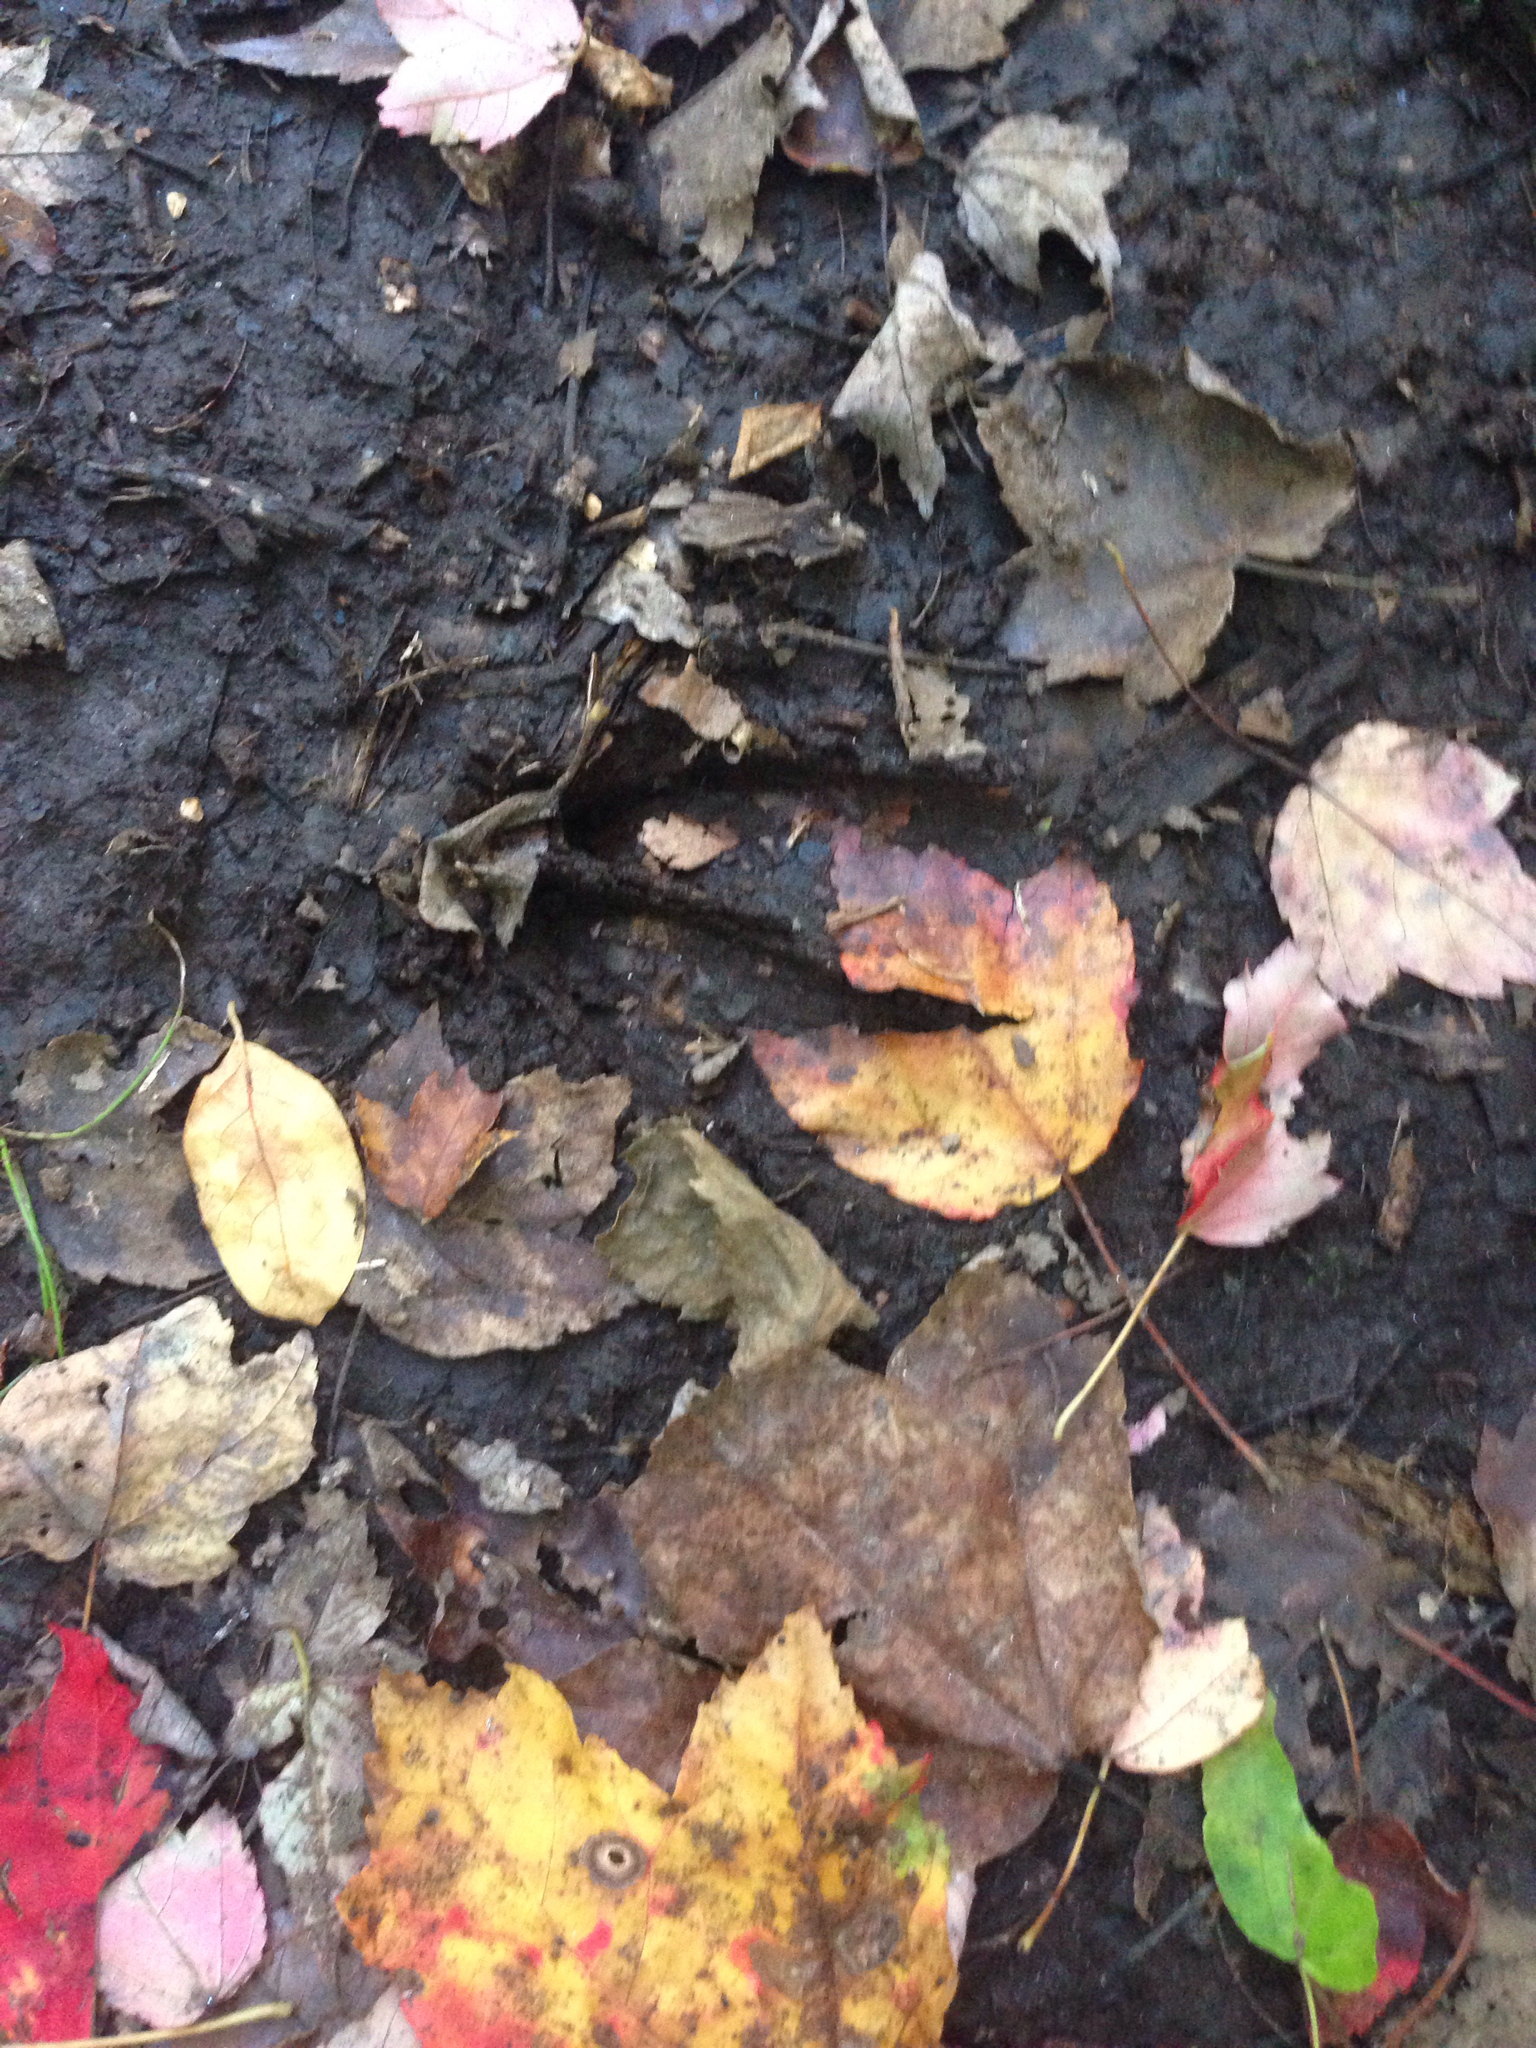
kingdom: Animalia
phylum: Chordata
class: Mammalia
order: Artiodactyla
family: Cervidae
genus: Odocoileus
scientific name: Odocoileus virginianus
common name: White-tailed deer
